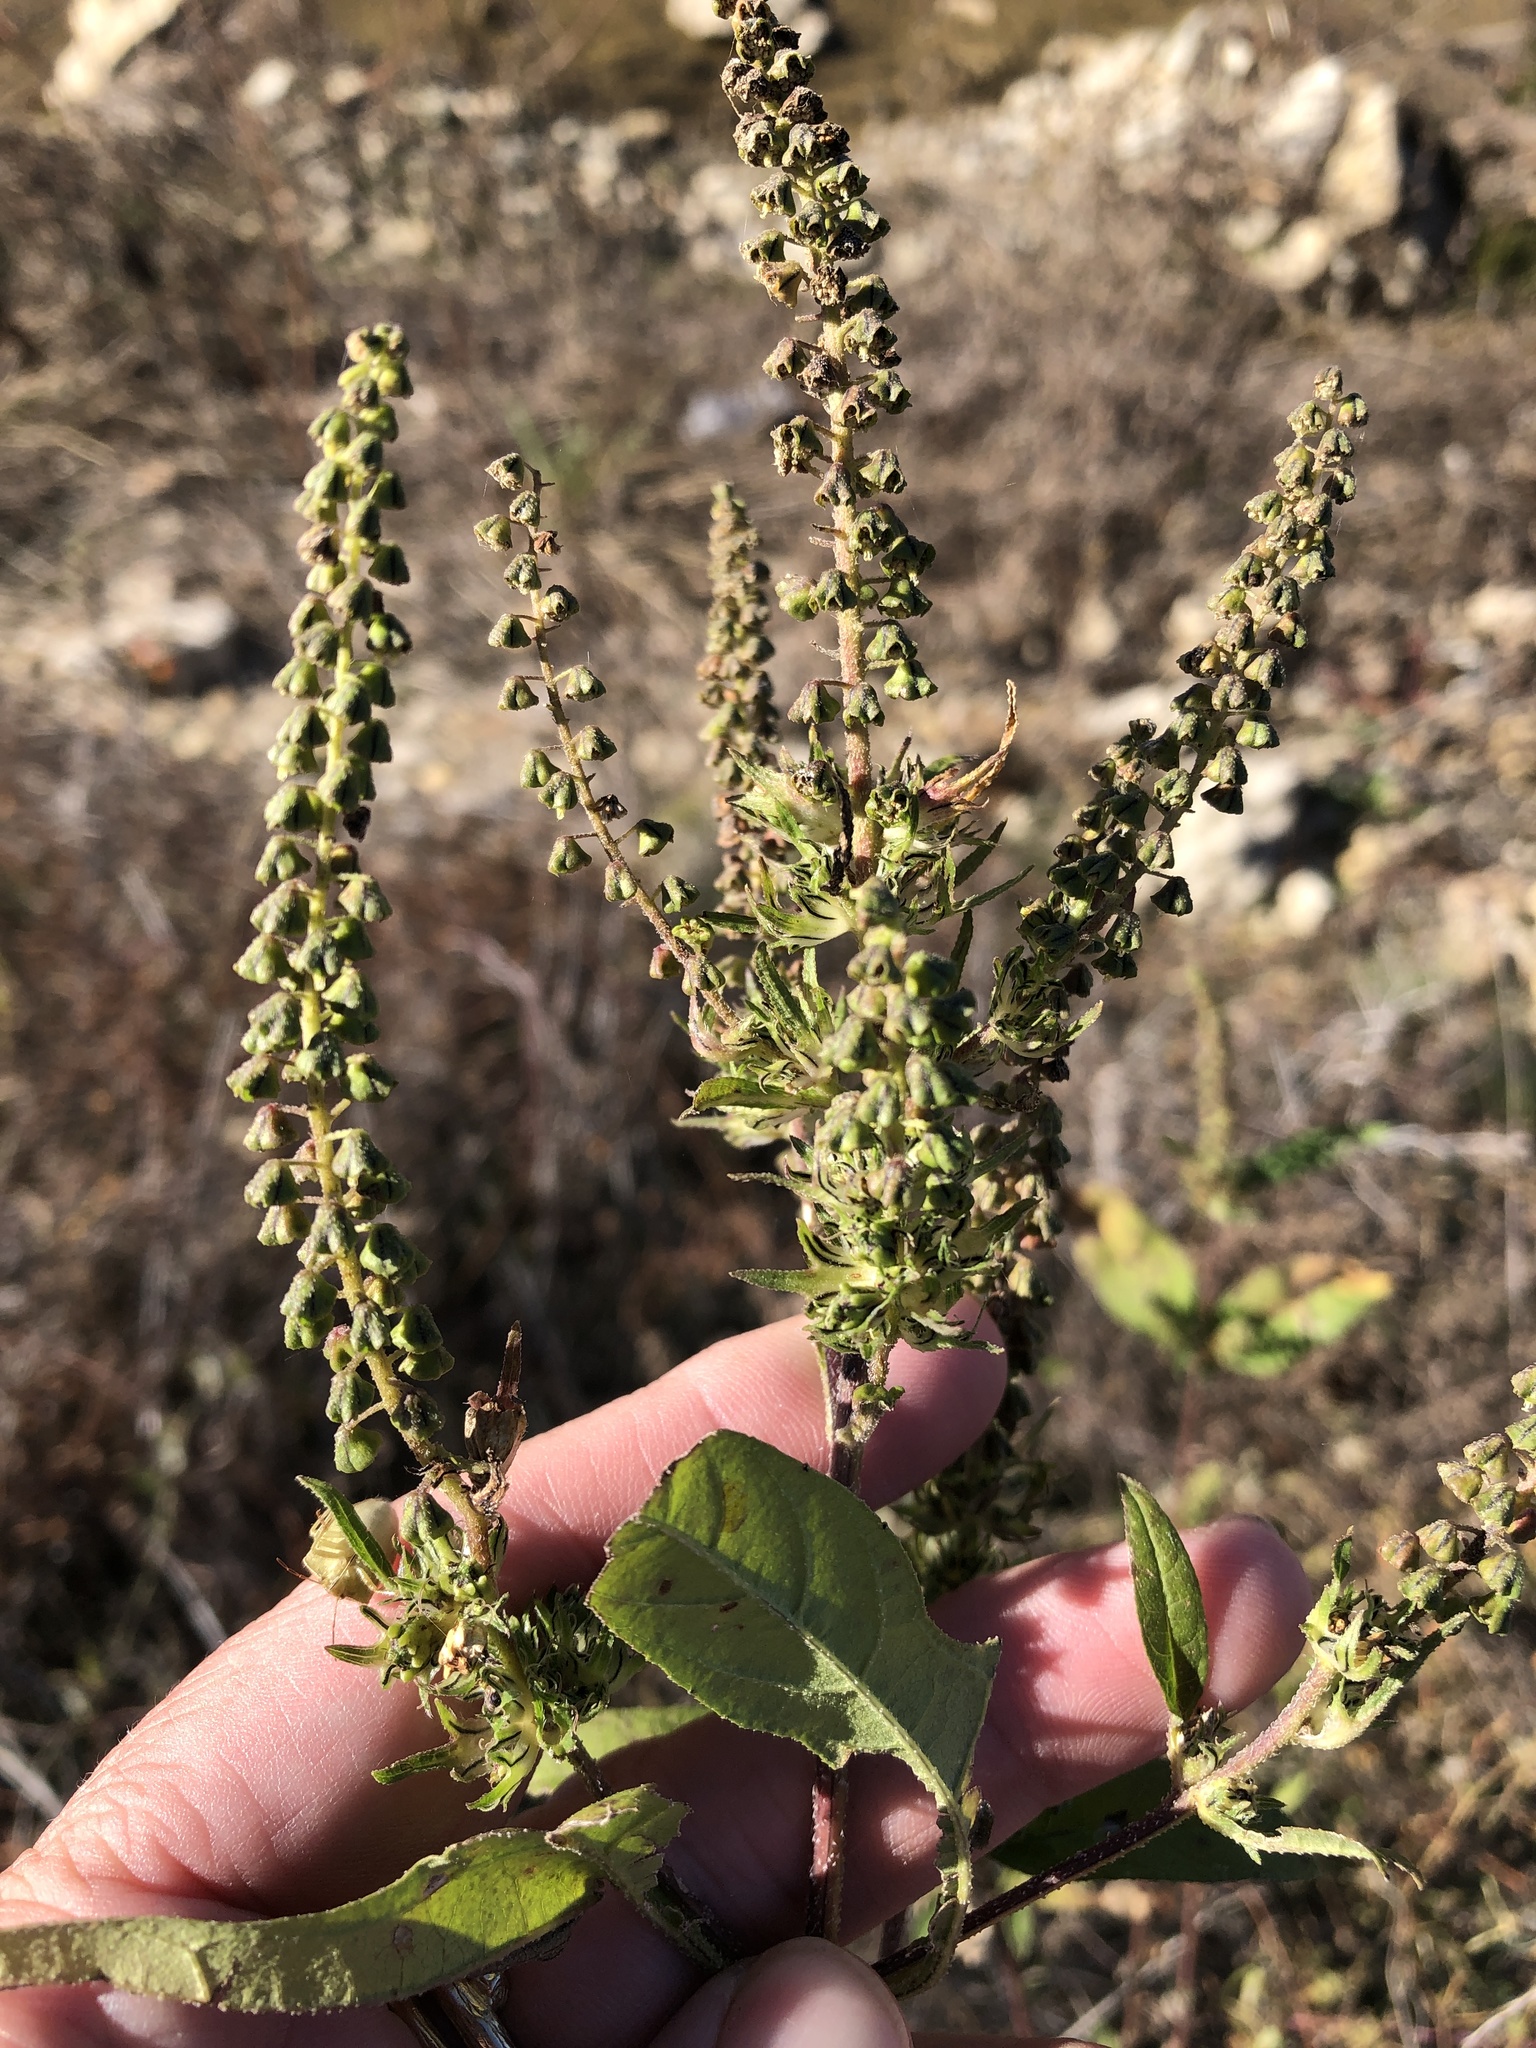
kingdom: Plantae
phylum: Tracheophyta
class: Magnoliopsida
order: Asterales
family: Asteraceae
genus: Ambrosia
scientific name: Ambrosia trifida
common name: Giant ragweed
